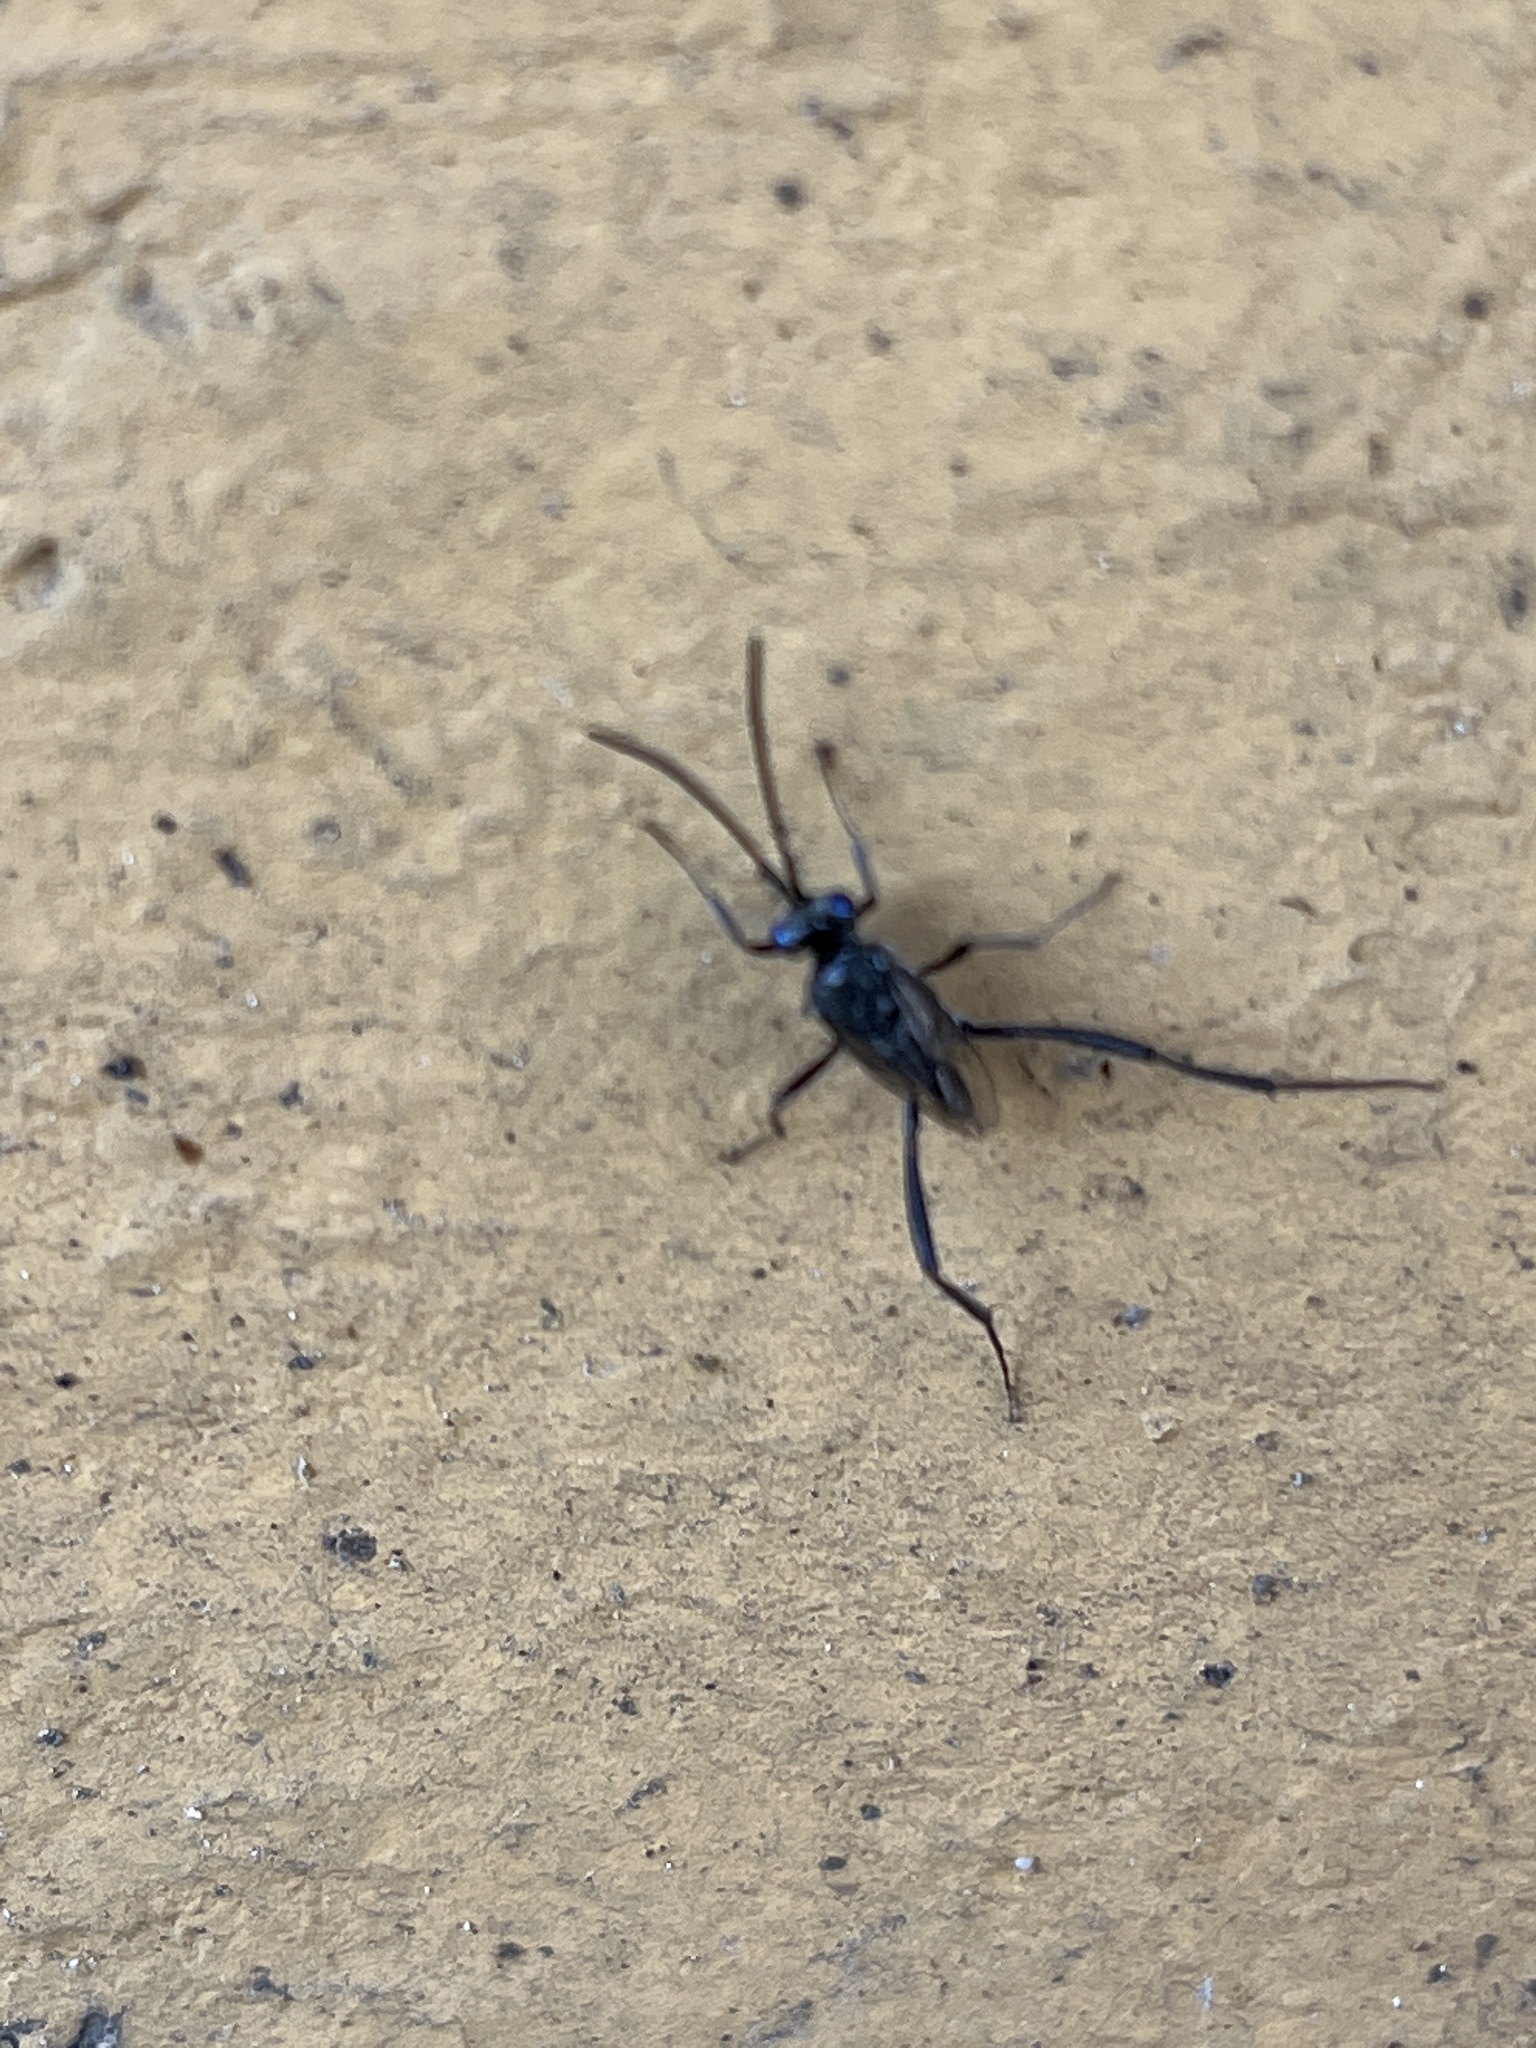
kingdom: Animalia
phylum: Arthropoda
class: Insecta
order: Hymenoptera
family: Evaniidae
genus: Evania
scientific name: Evania appendigaster
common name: Ensign wasp
